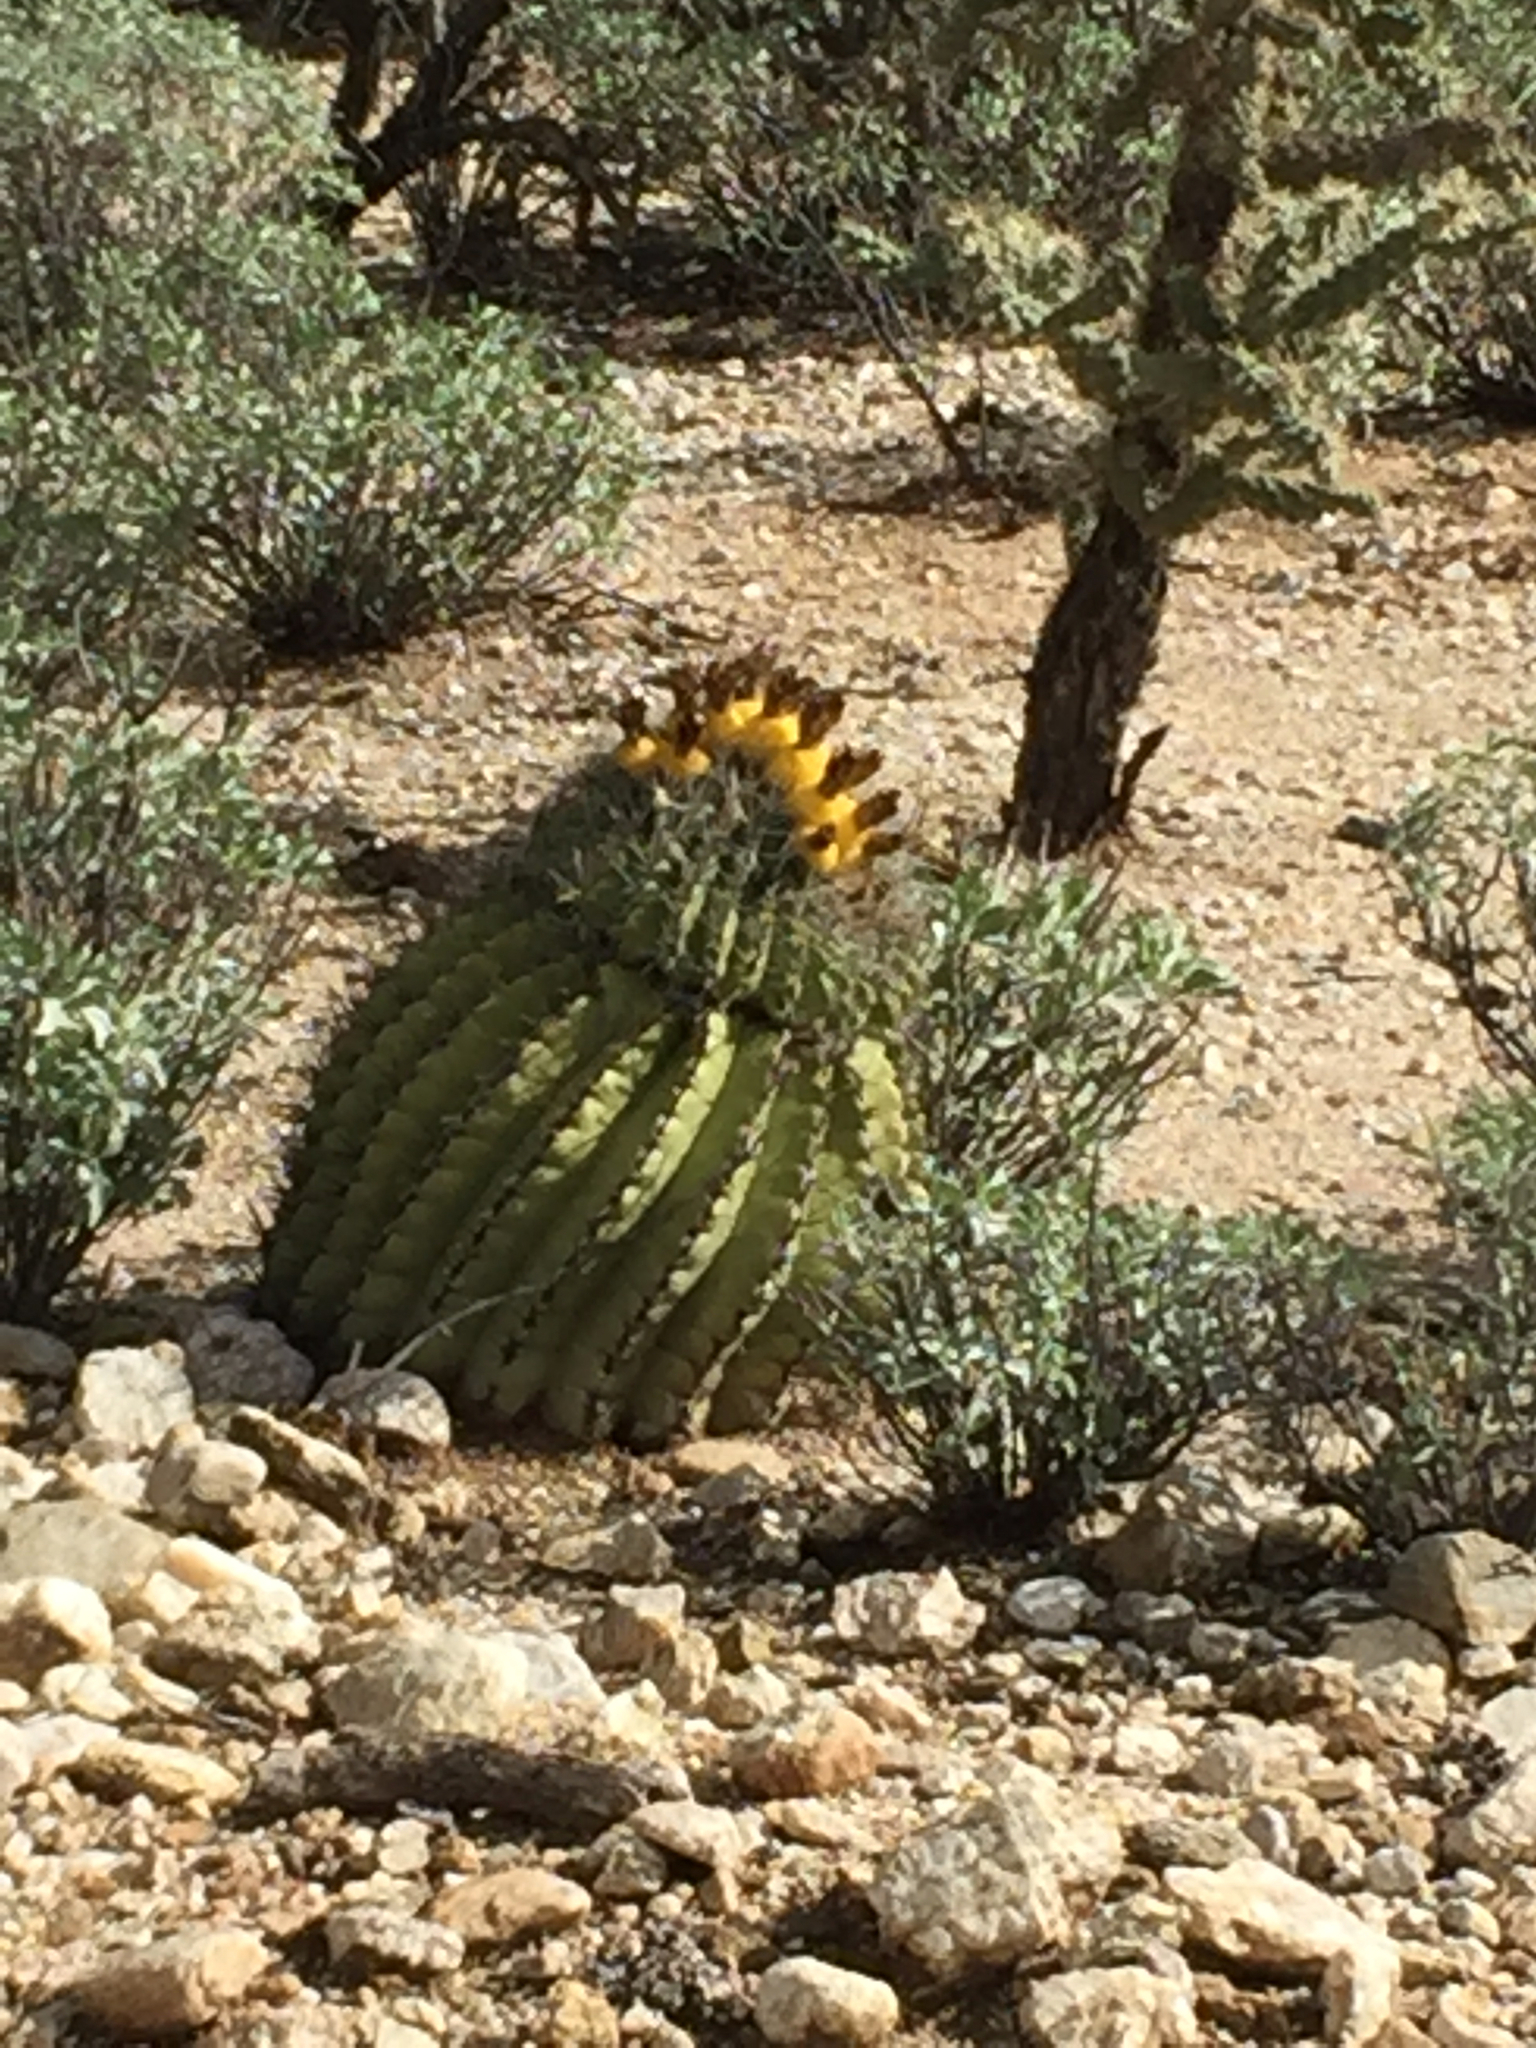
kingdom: Plantae
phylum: Tracheophyta
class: Magnoliopsida
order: Caryophyllales
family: Cactaceae
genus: Ferocactus
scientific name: Ferocactus wislizeni
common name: Candy barrel cactus
